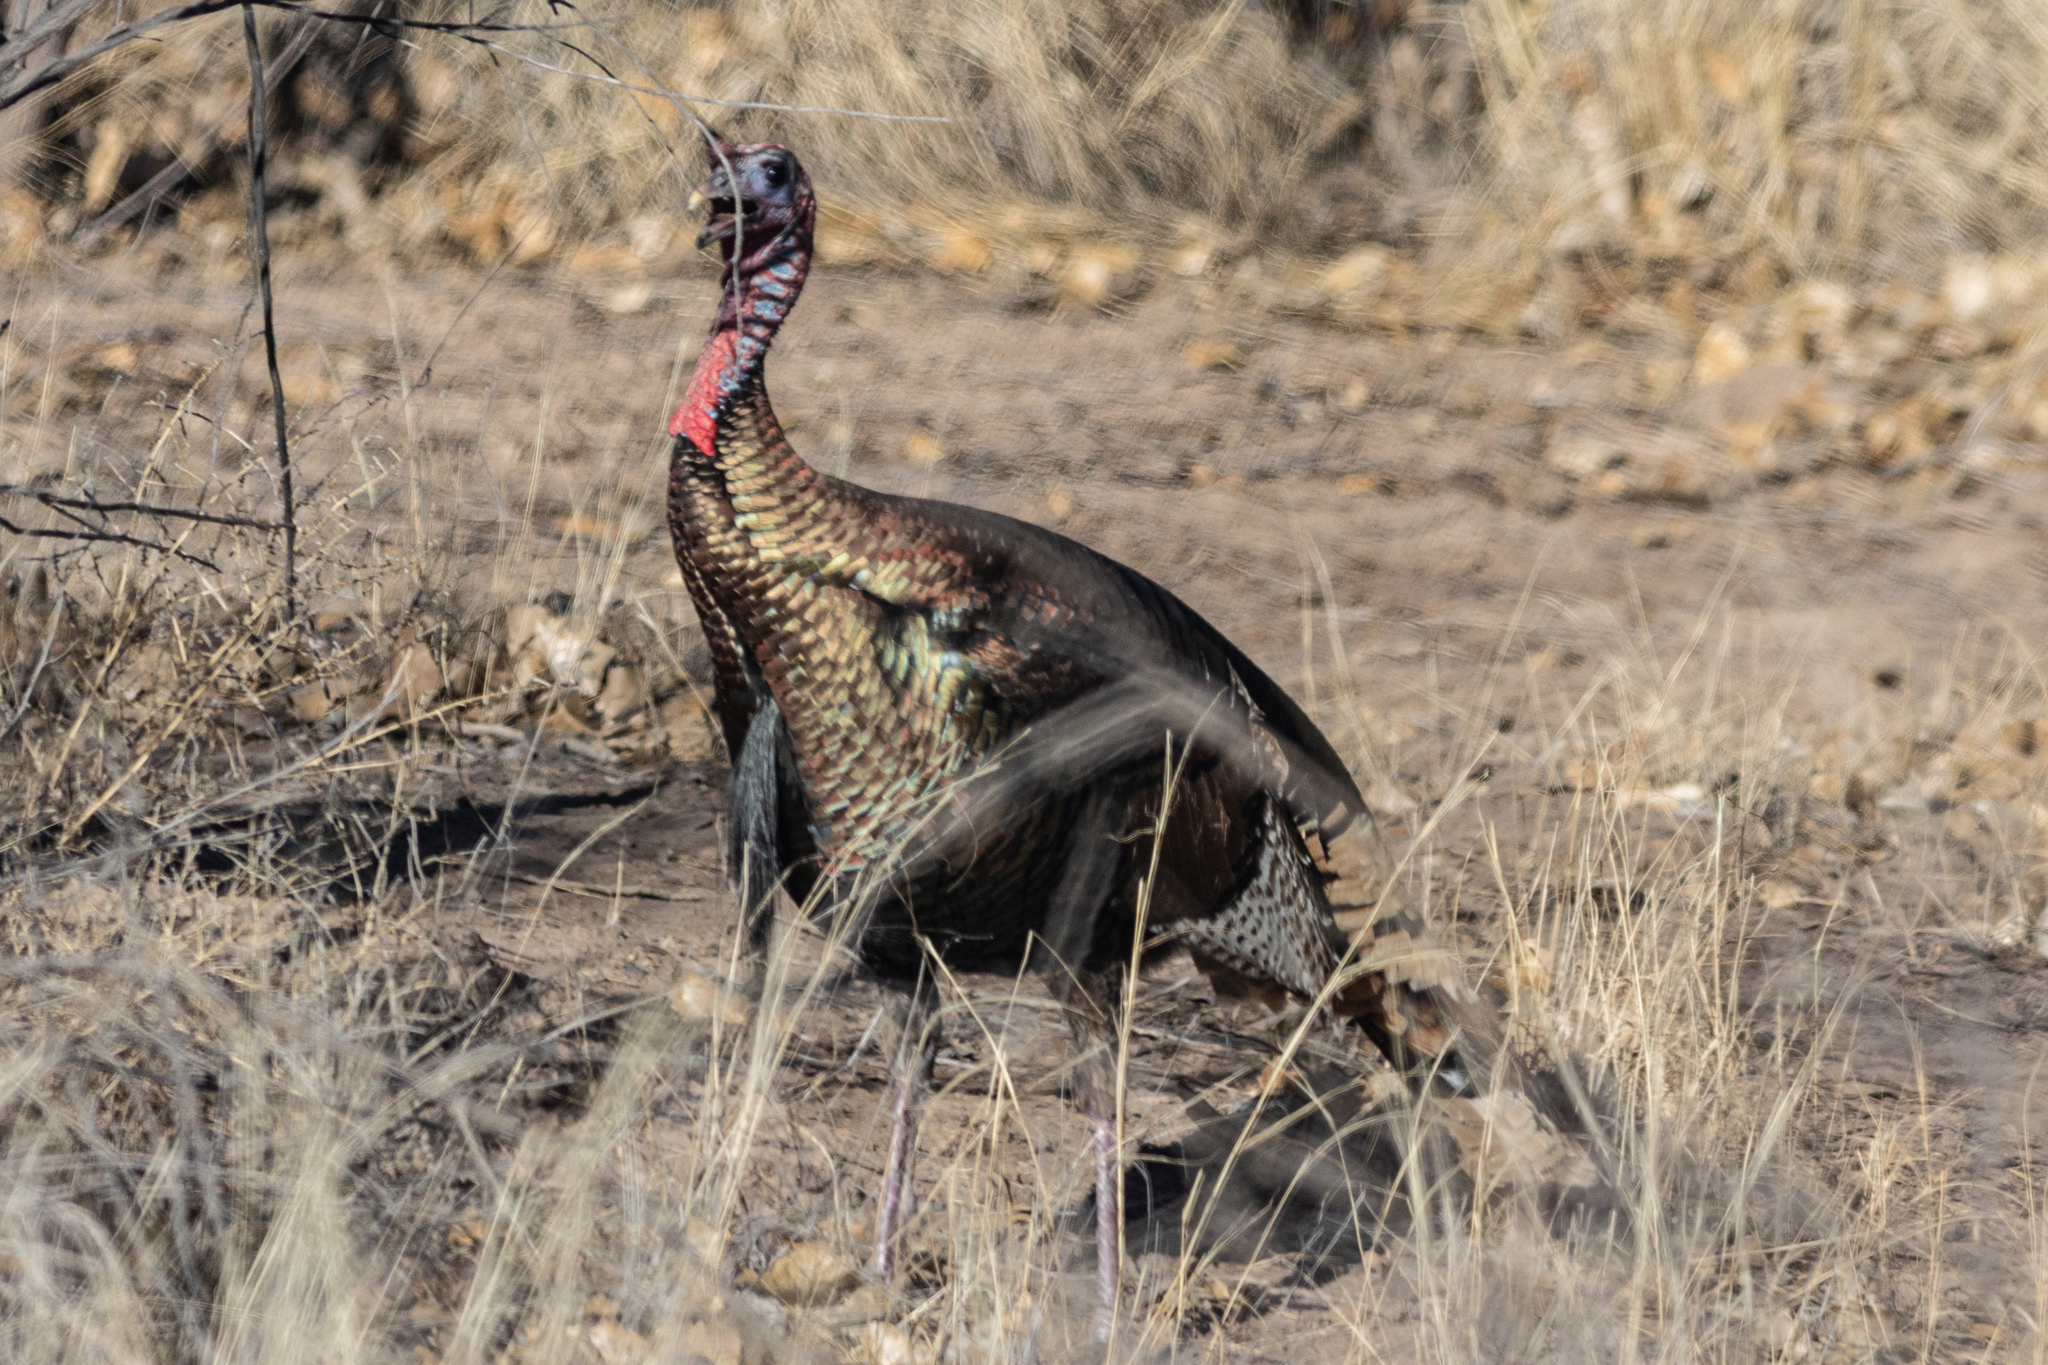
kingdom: Animalia
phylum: Chordata
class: Aves
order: Galliformes
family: Phasianidae
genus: Meleagris
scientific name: Meleagris gallopavo
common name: Wild turkey
